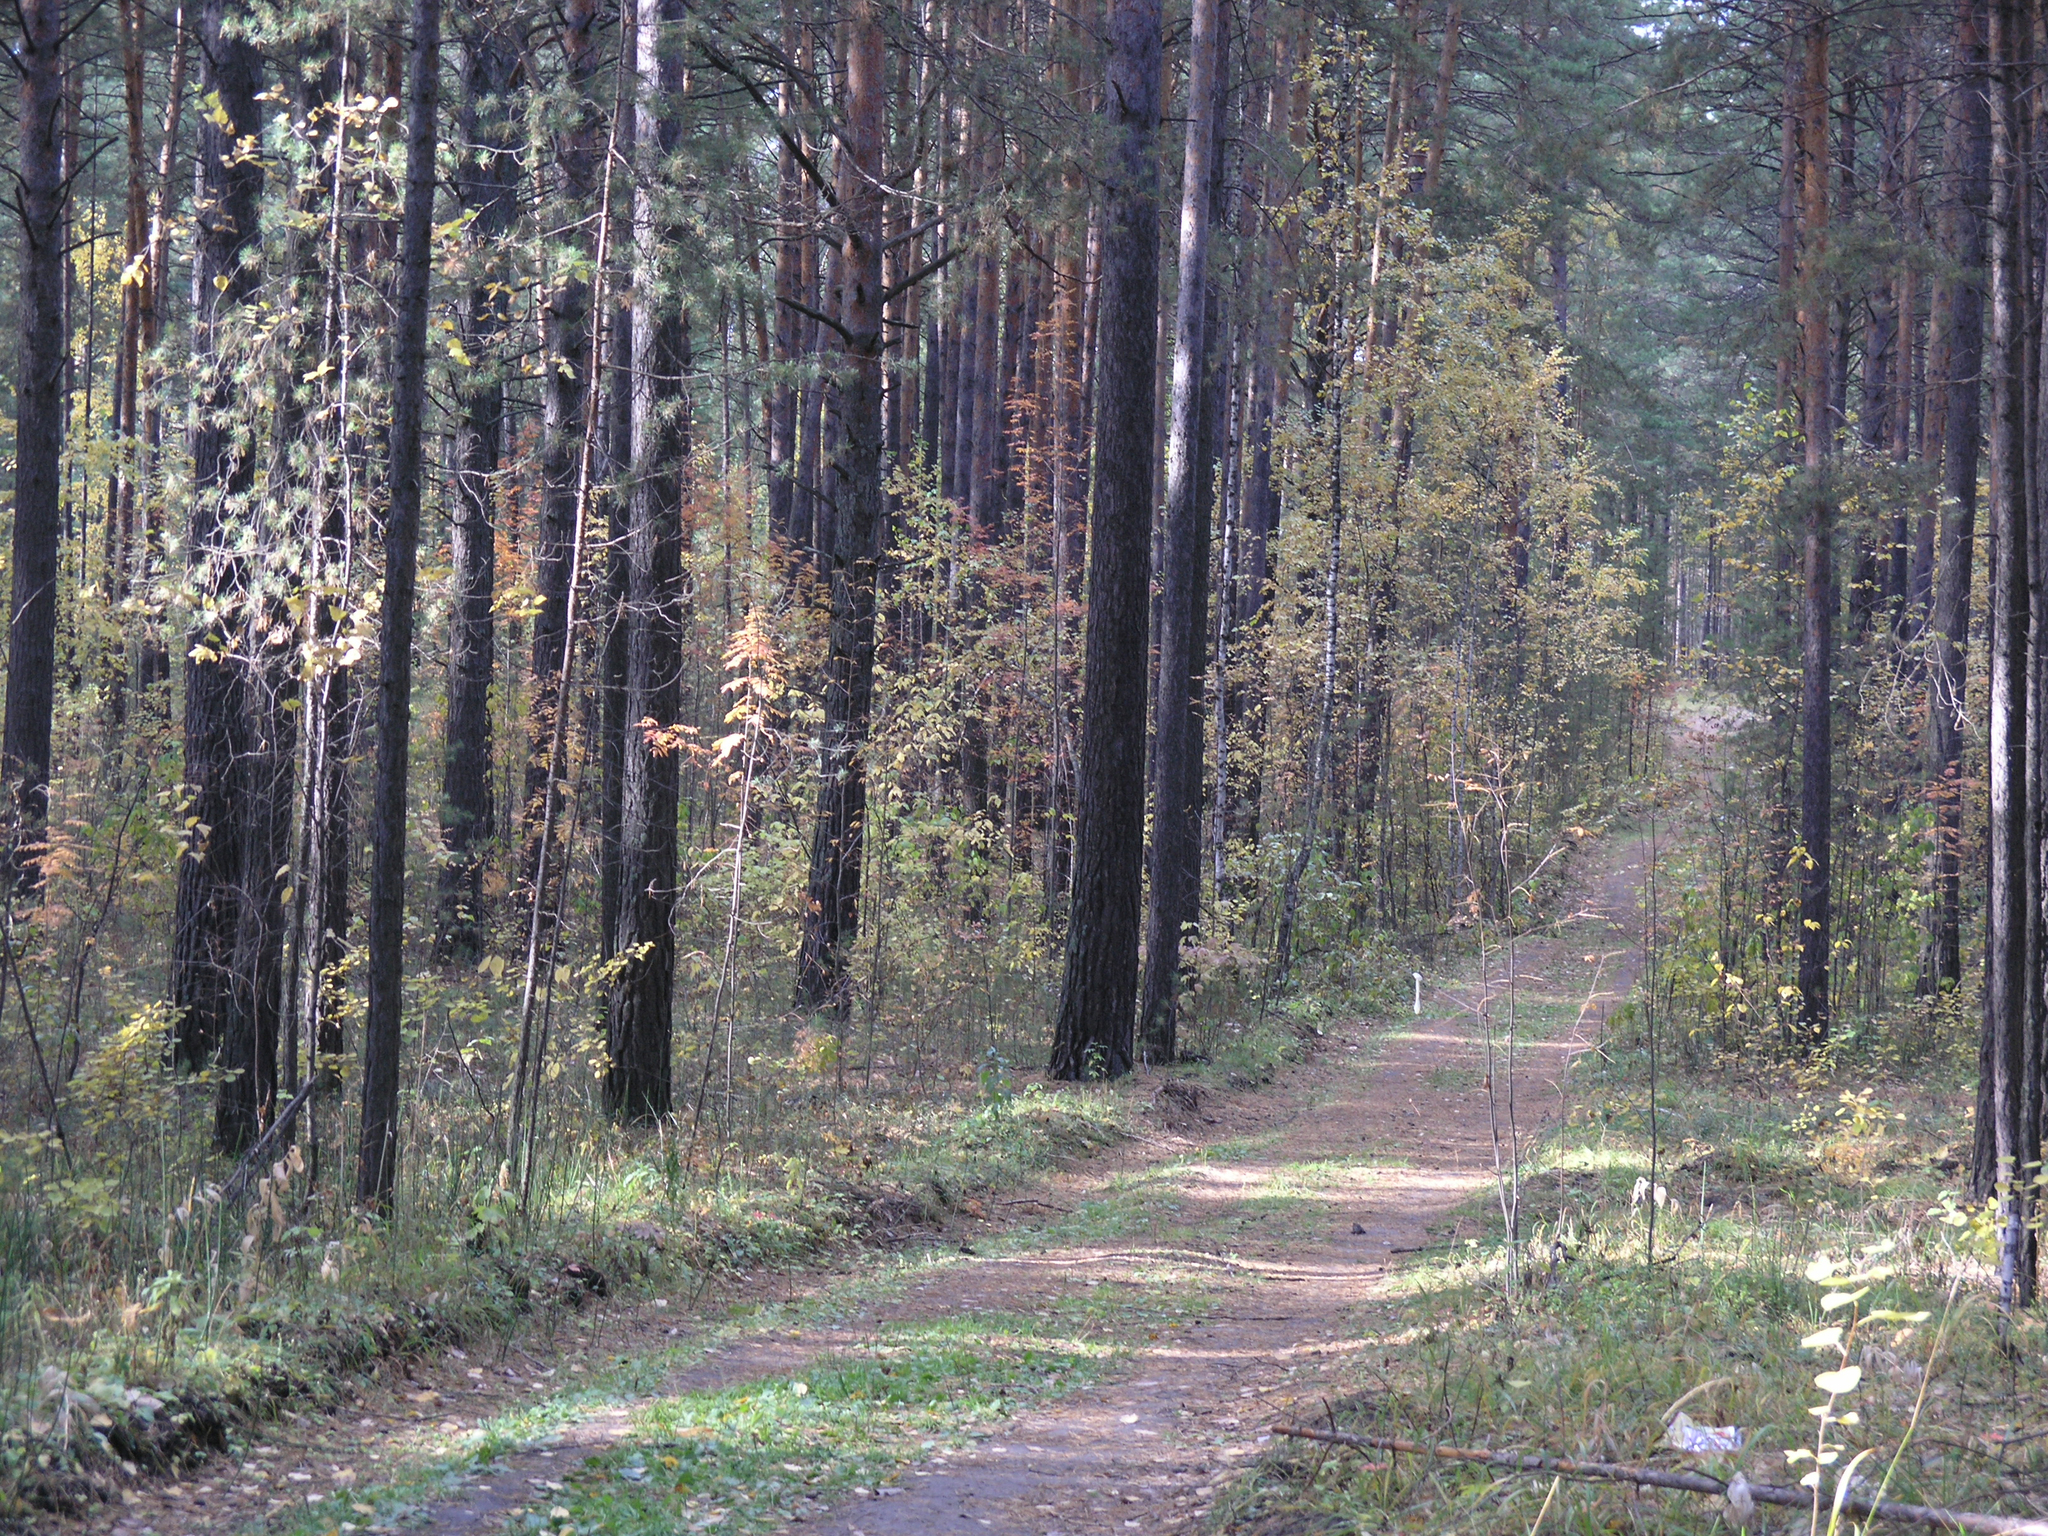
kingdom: Plantae
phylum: Tracheophyta
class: Pinopsida
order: Pinales
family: Pinaceae
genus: Pinus
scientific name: Pinus sylvestris
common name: Scots pine
